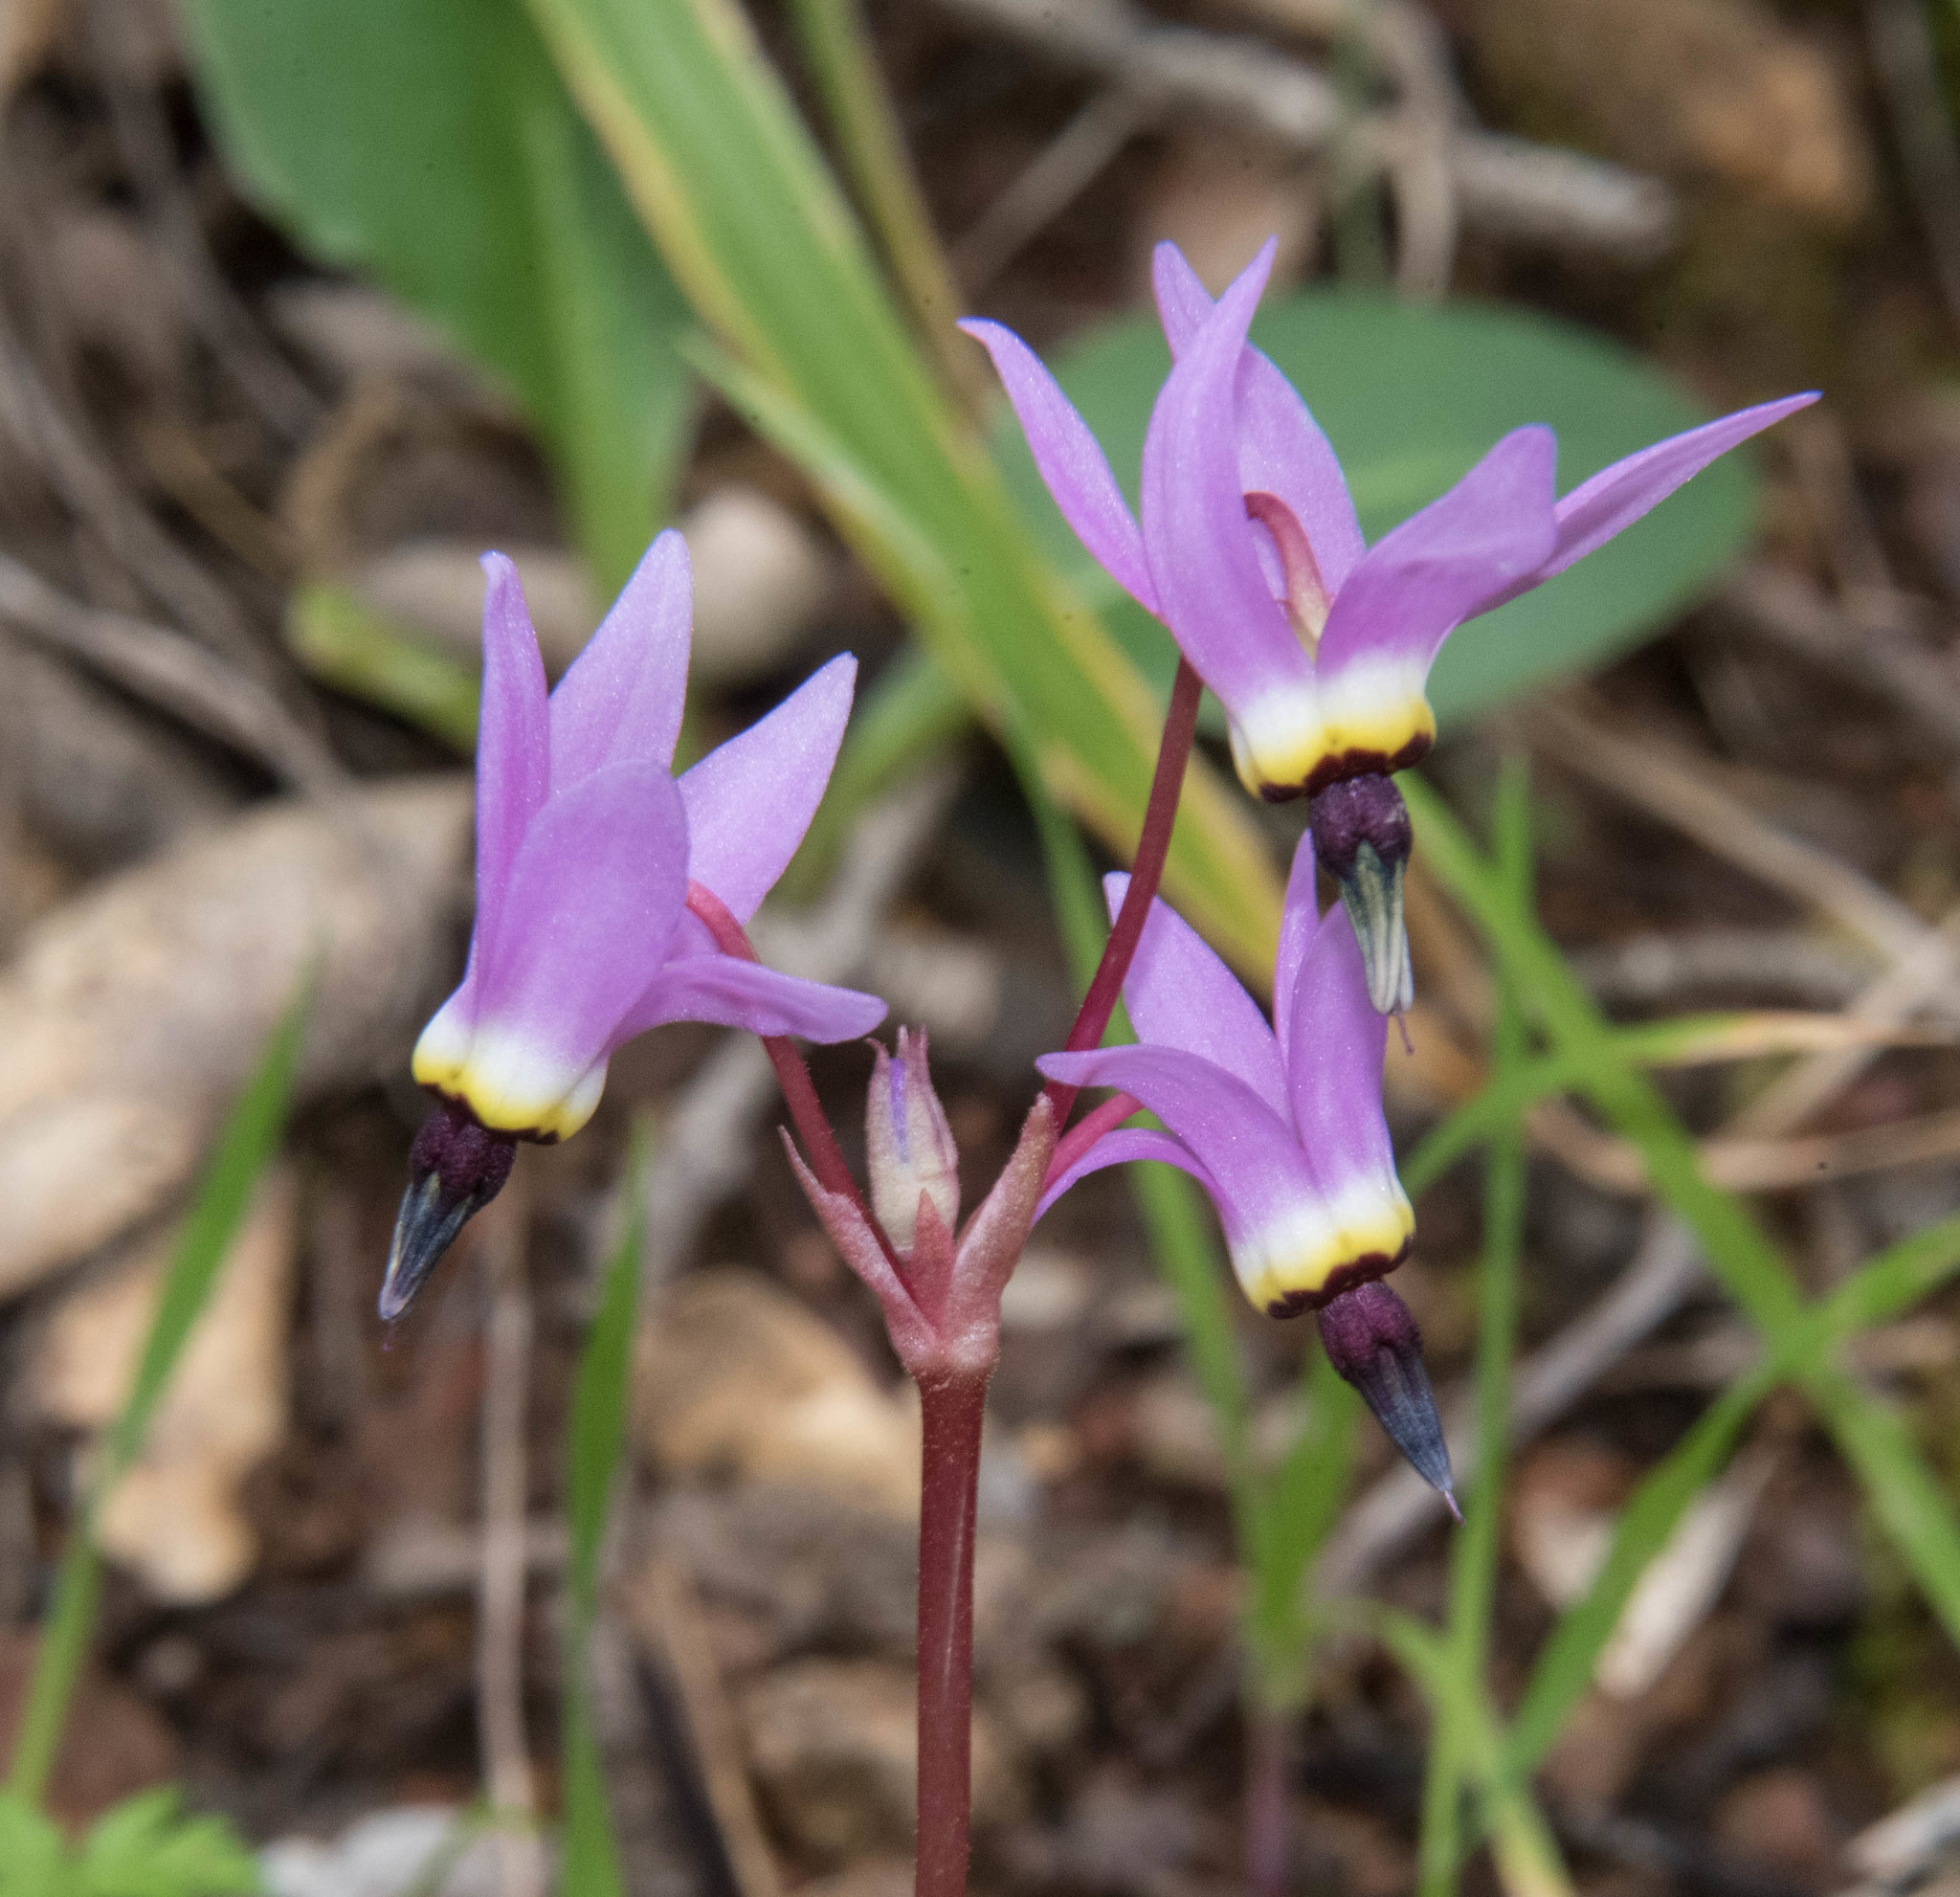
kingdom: Plantae
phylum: Tracheophyta
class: Magnoliopsida
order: Ericales
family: Primulaceae
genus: Dodecatheon
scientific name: Dodecatheon hendersonii
